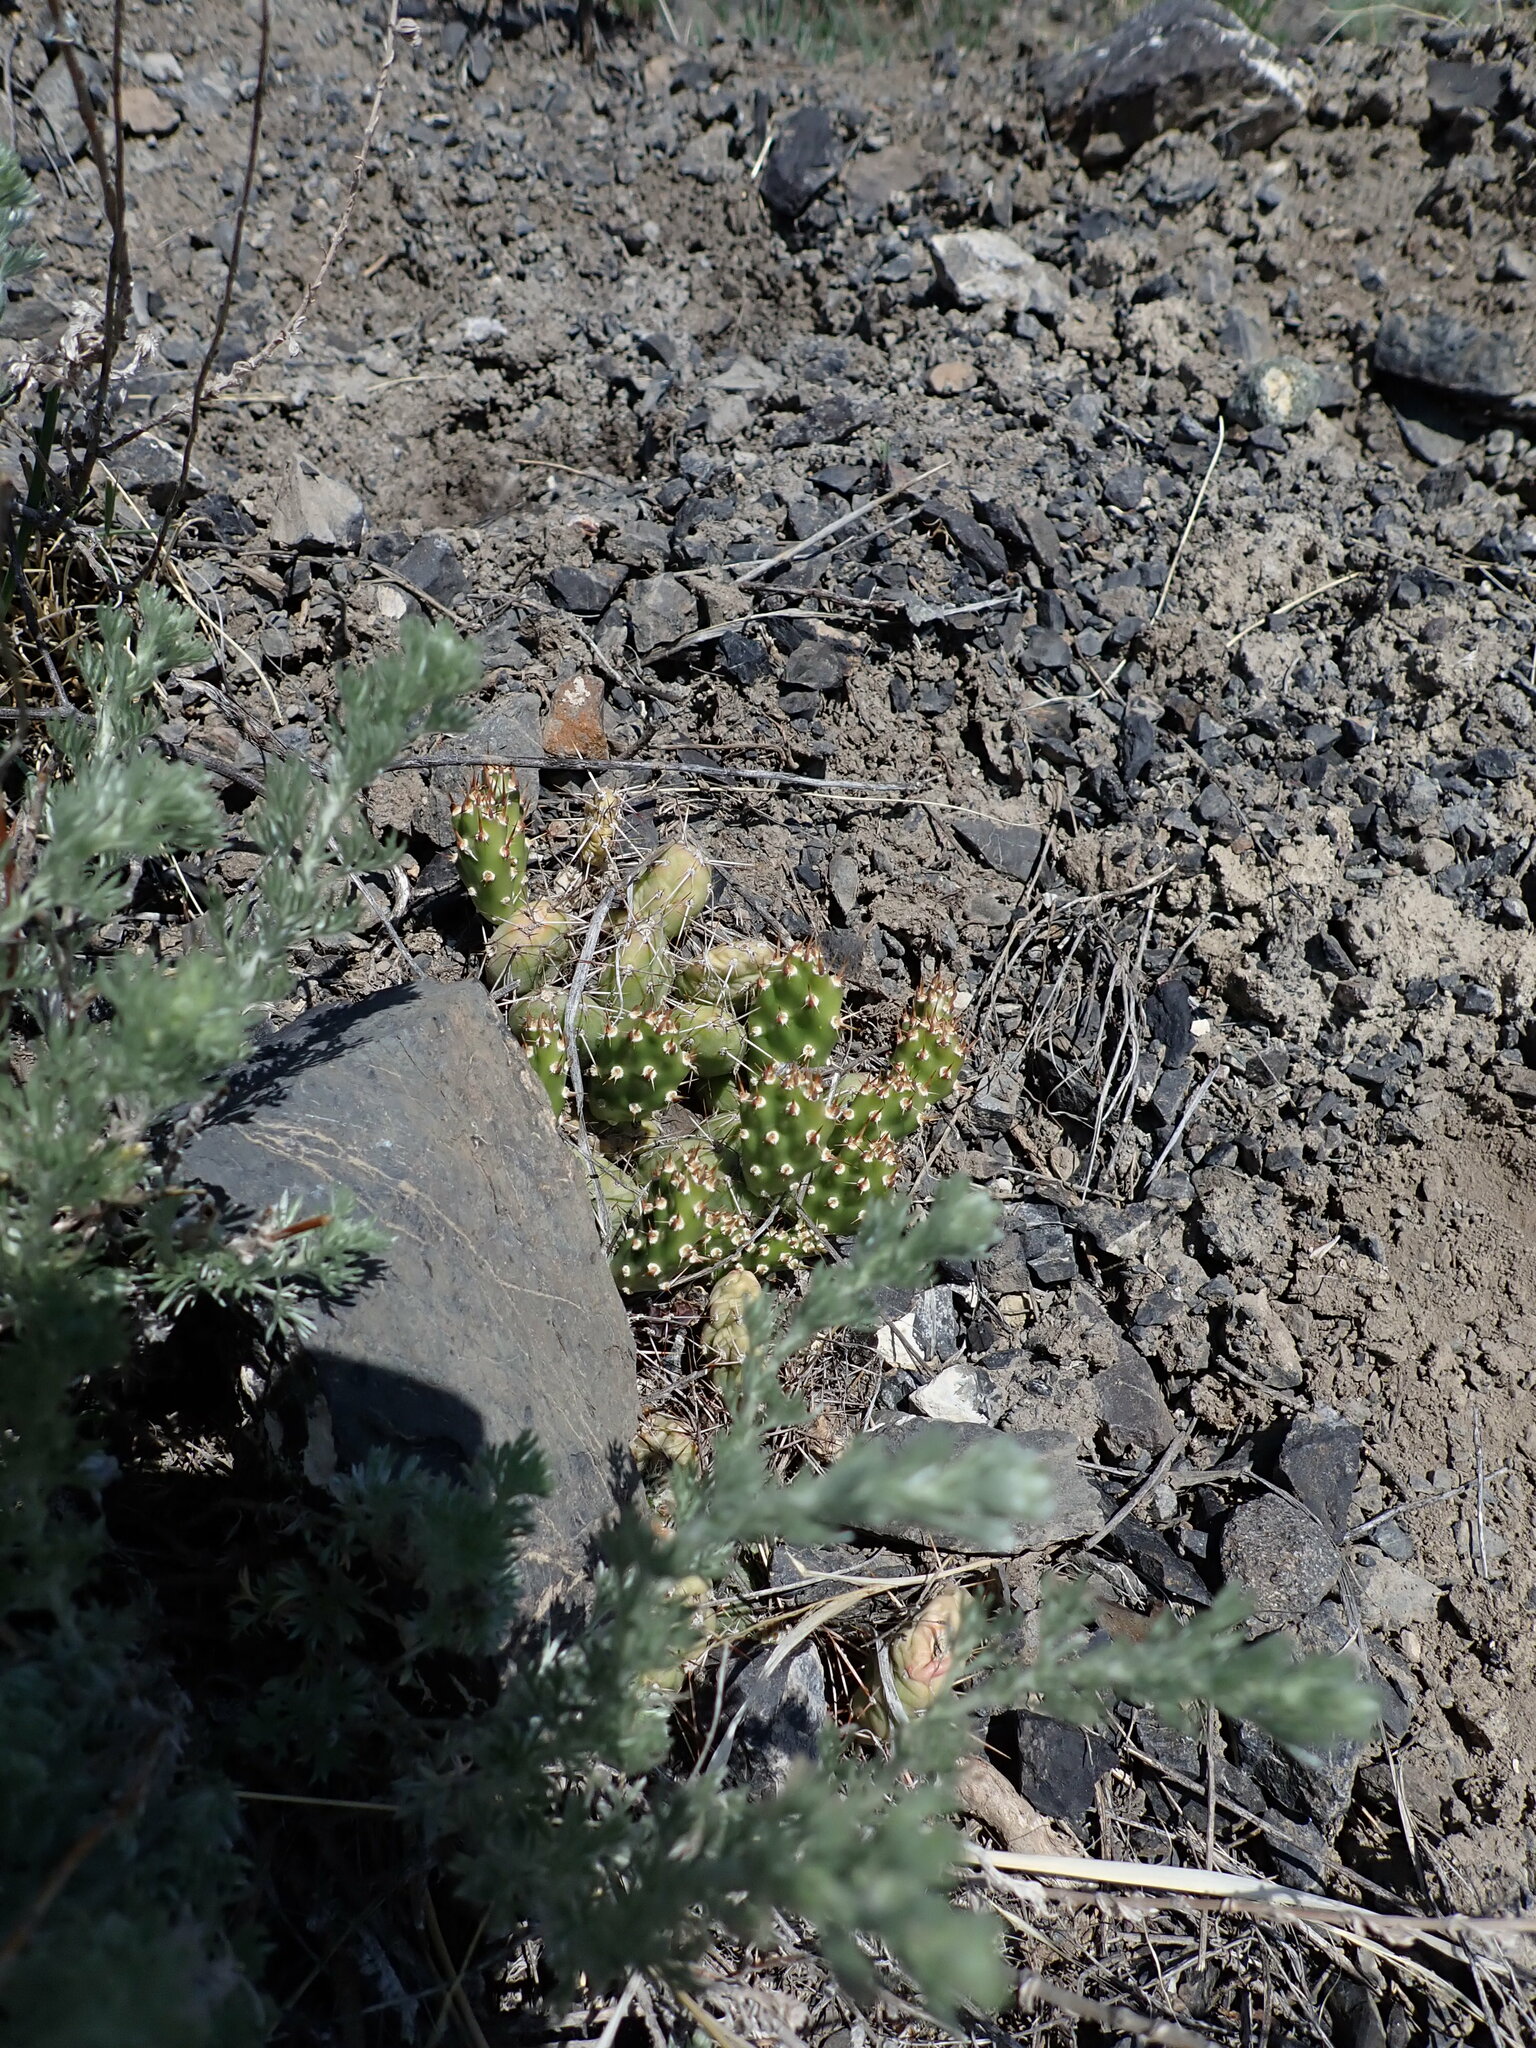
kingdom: Plantae
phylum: Tracheophyta
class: Magnoliopsida
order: Caryophyllales
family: Cactaceae
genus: Opuntia
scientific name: Opuntia fragilis
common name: Brittle cactus
